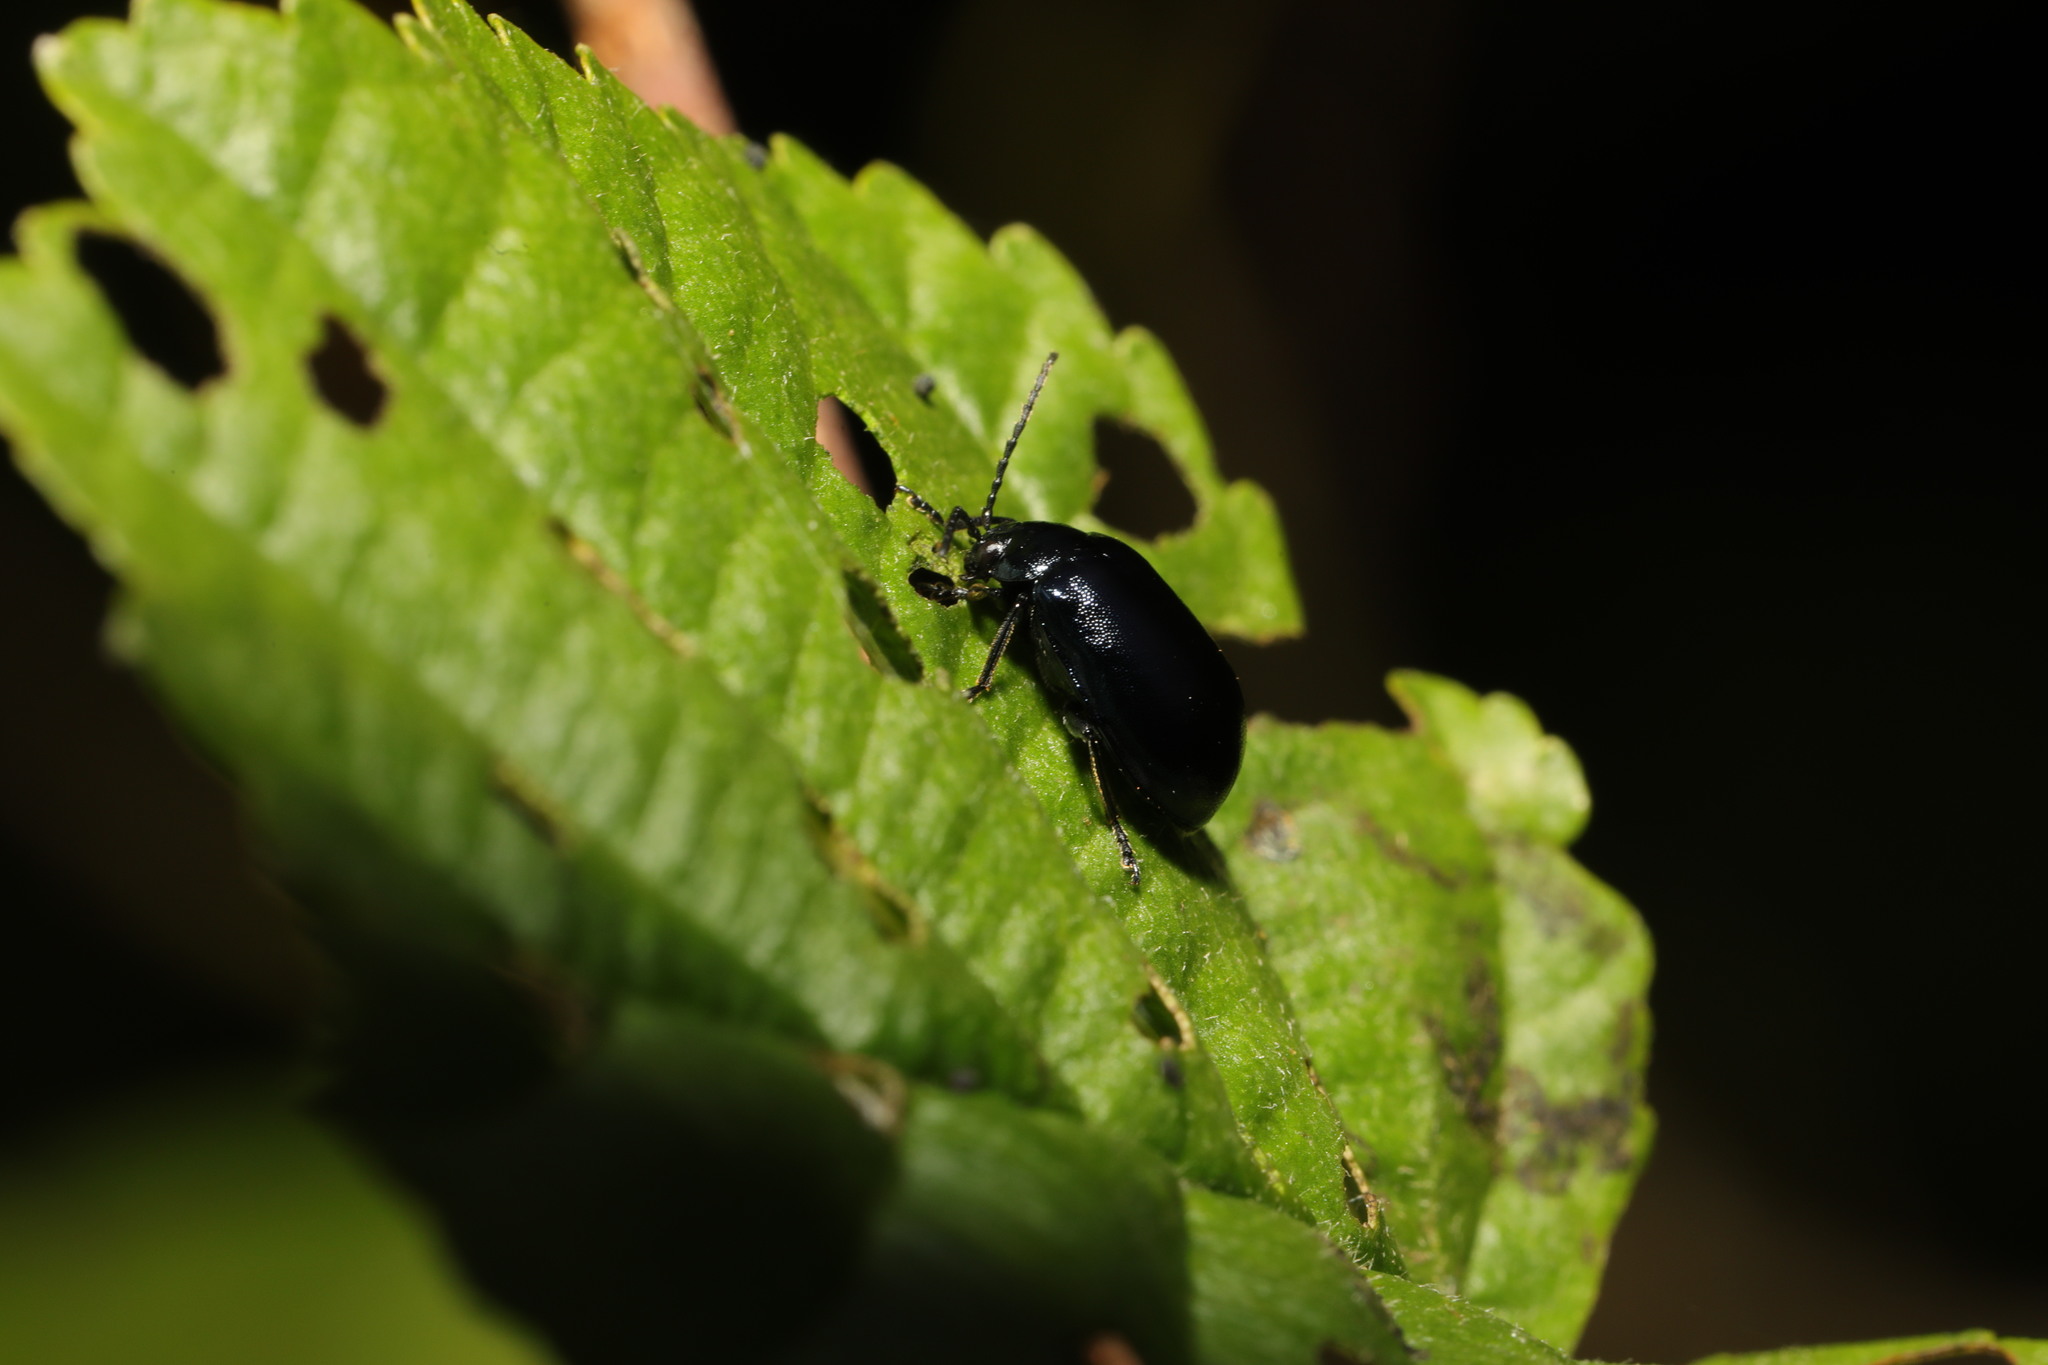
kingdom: Animalia
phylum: Arthropoda
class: Insecta
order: Coleoptera
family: Chrysomelidae
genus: Agelastica
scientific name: Agelastica alni
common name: Alder leaf beetle
